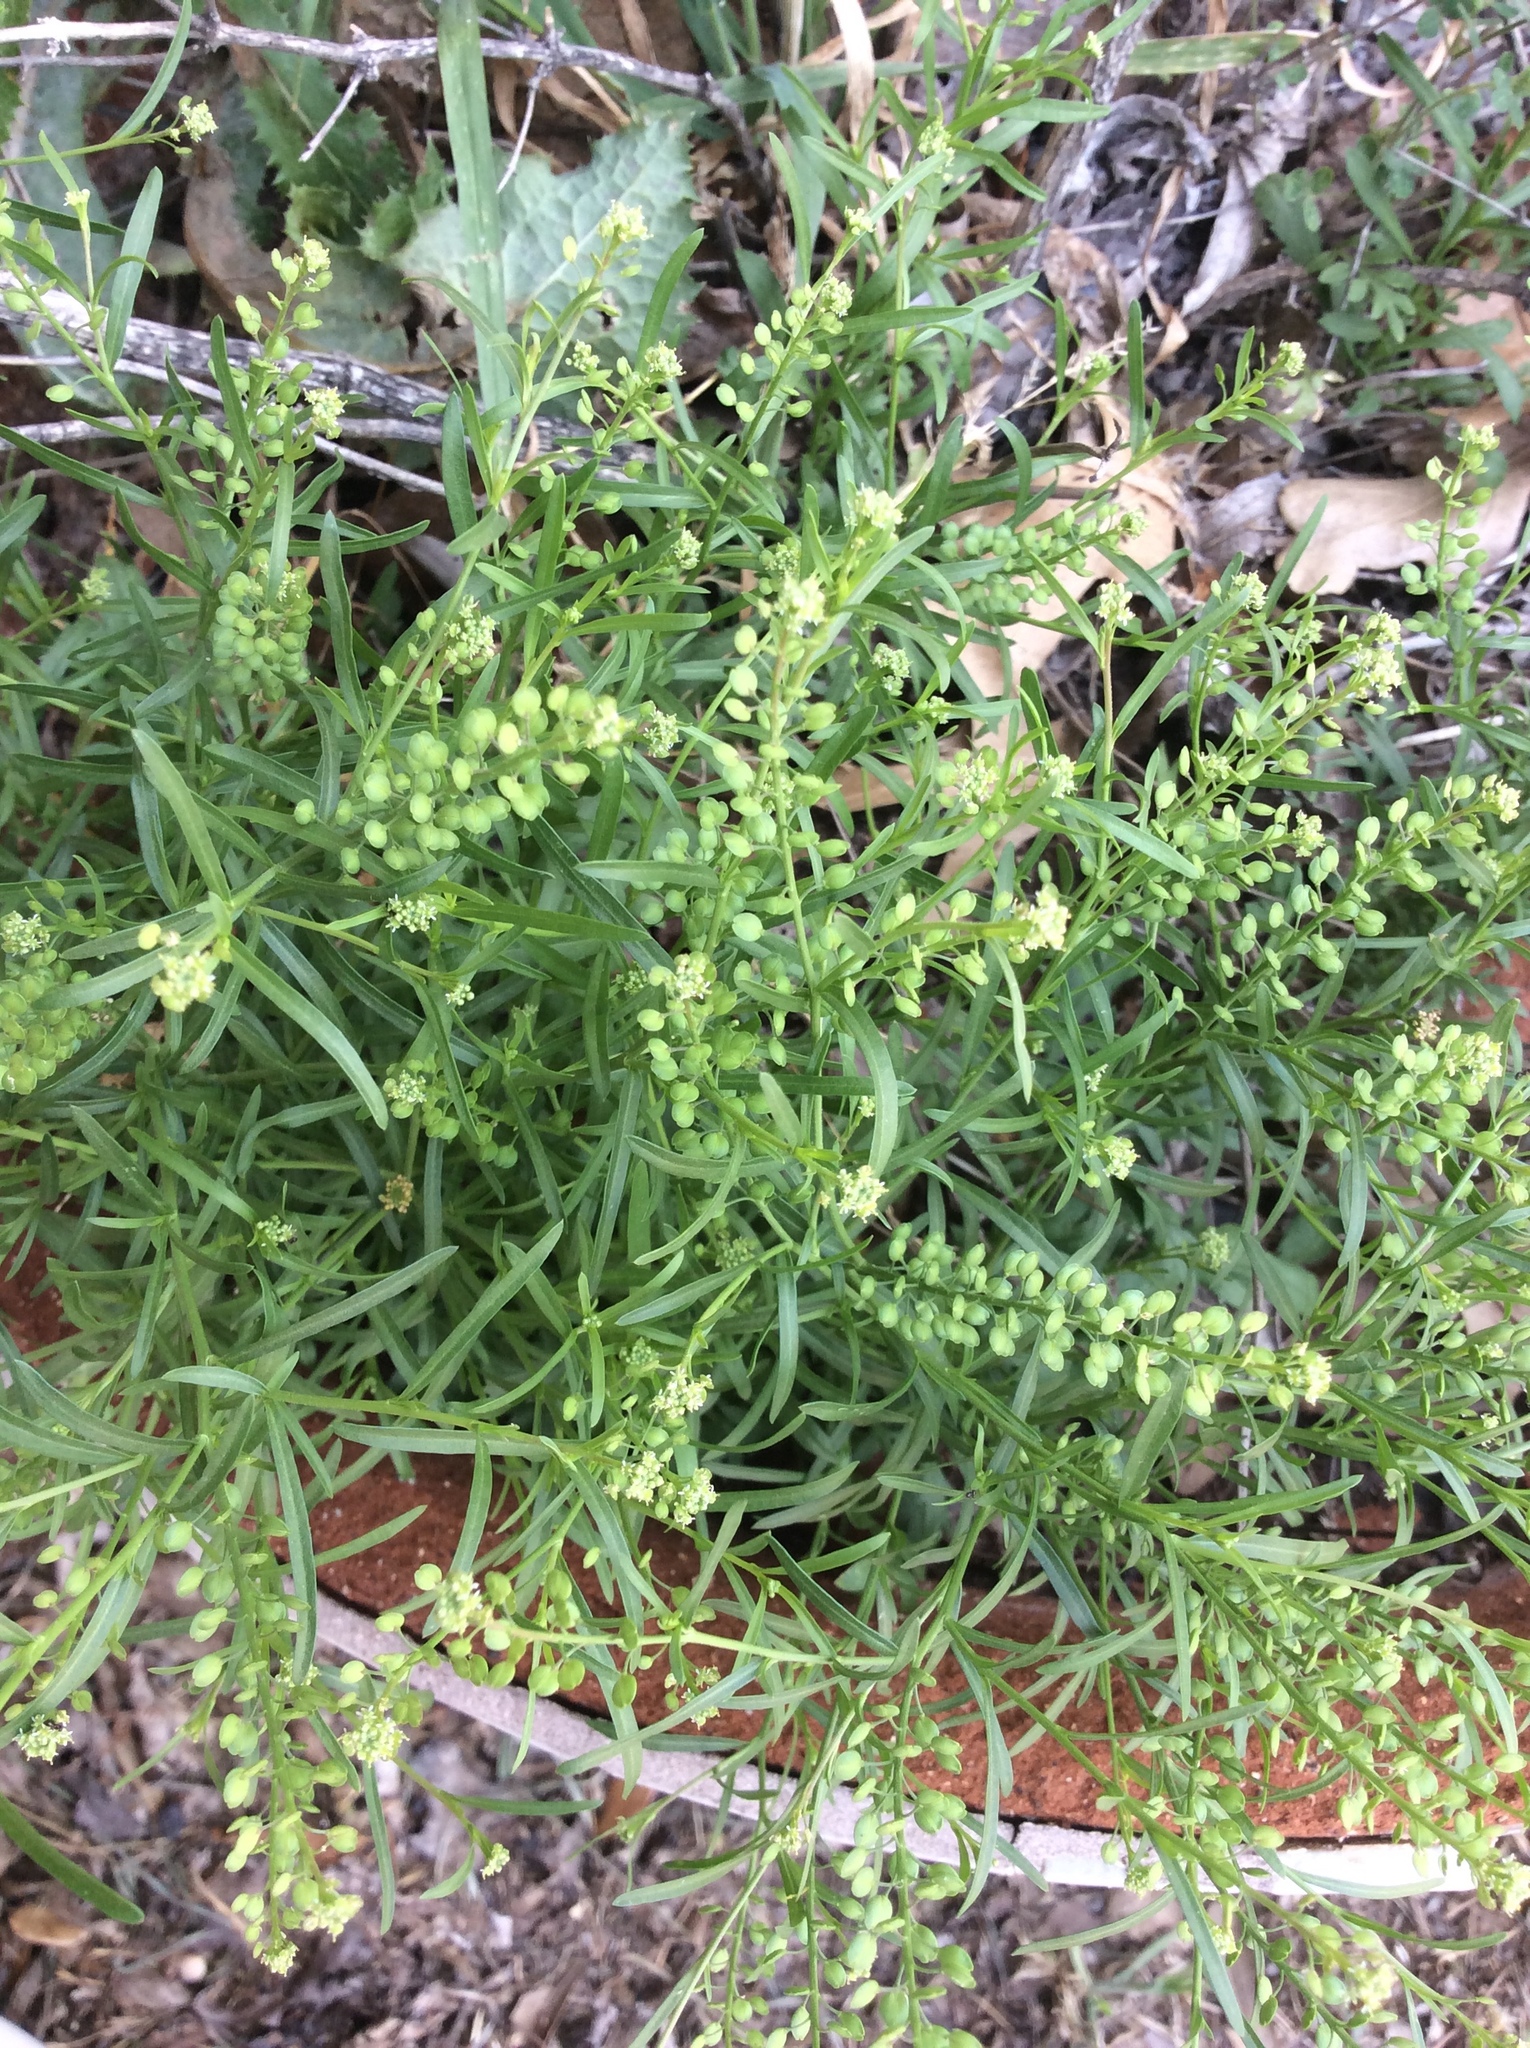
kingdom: Plantae
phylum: Tracheophyta
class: Magnoliopsida
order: Brassicales
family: Brassicaceae
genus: Lepidium
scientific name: Lepidium virginicum
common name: Least pepperwort
